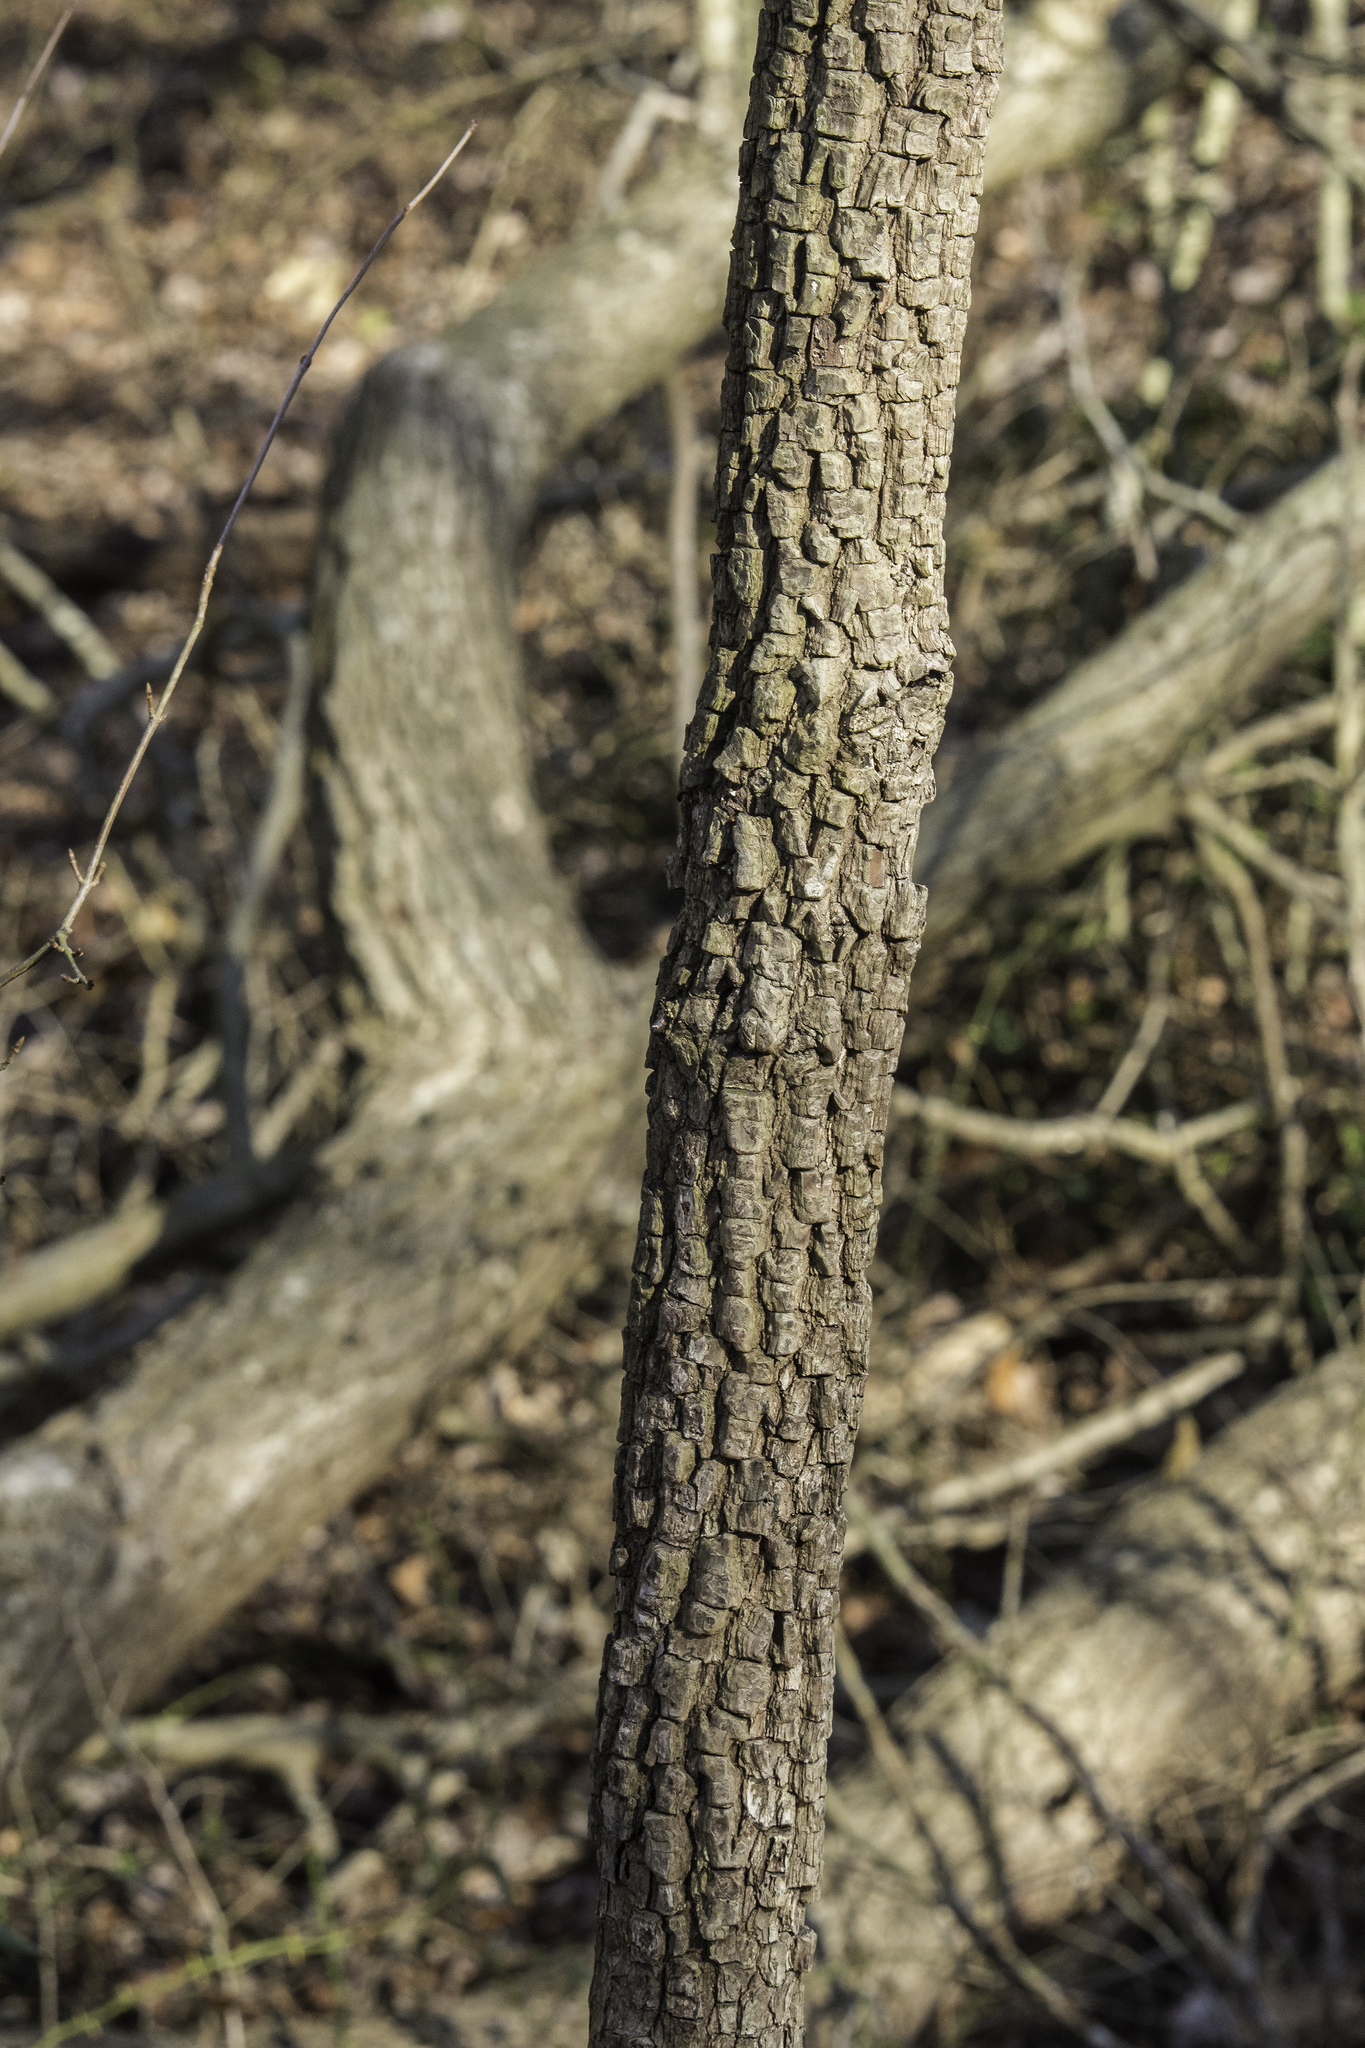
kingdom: Plantae
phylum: Tracheophyta
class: Magnoliopsida
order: Ericales
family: Ebenaceae
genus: Diospyros
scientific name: Diospyros virginiana
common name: Persimmon
